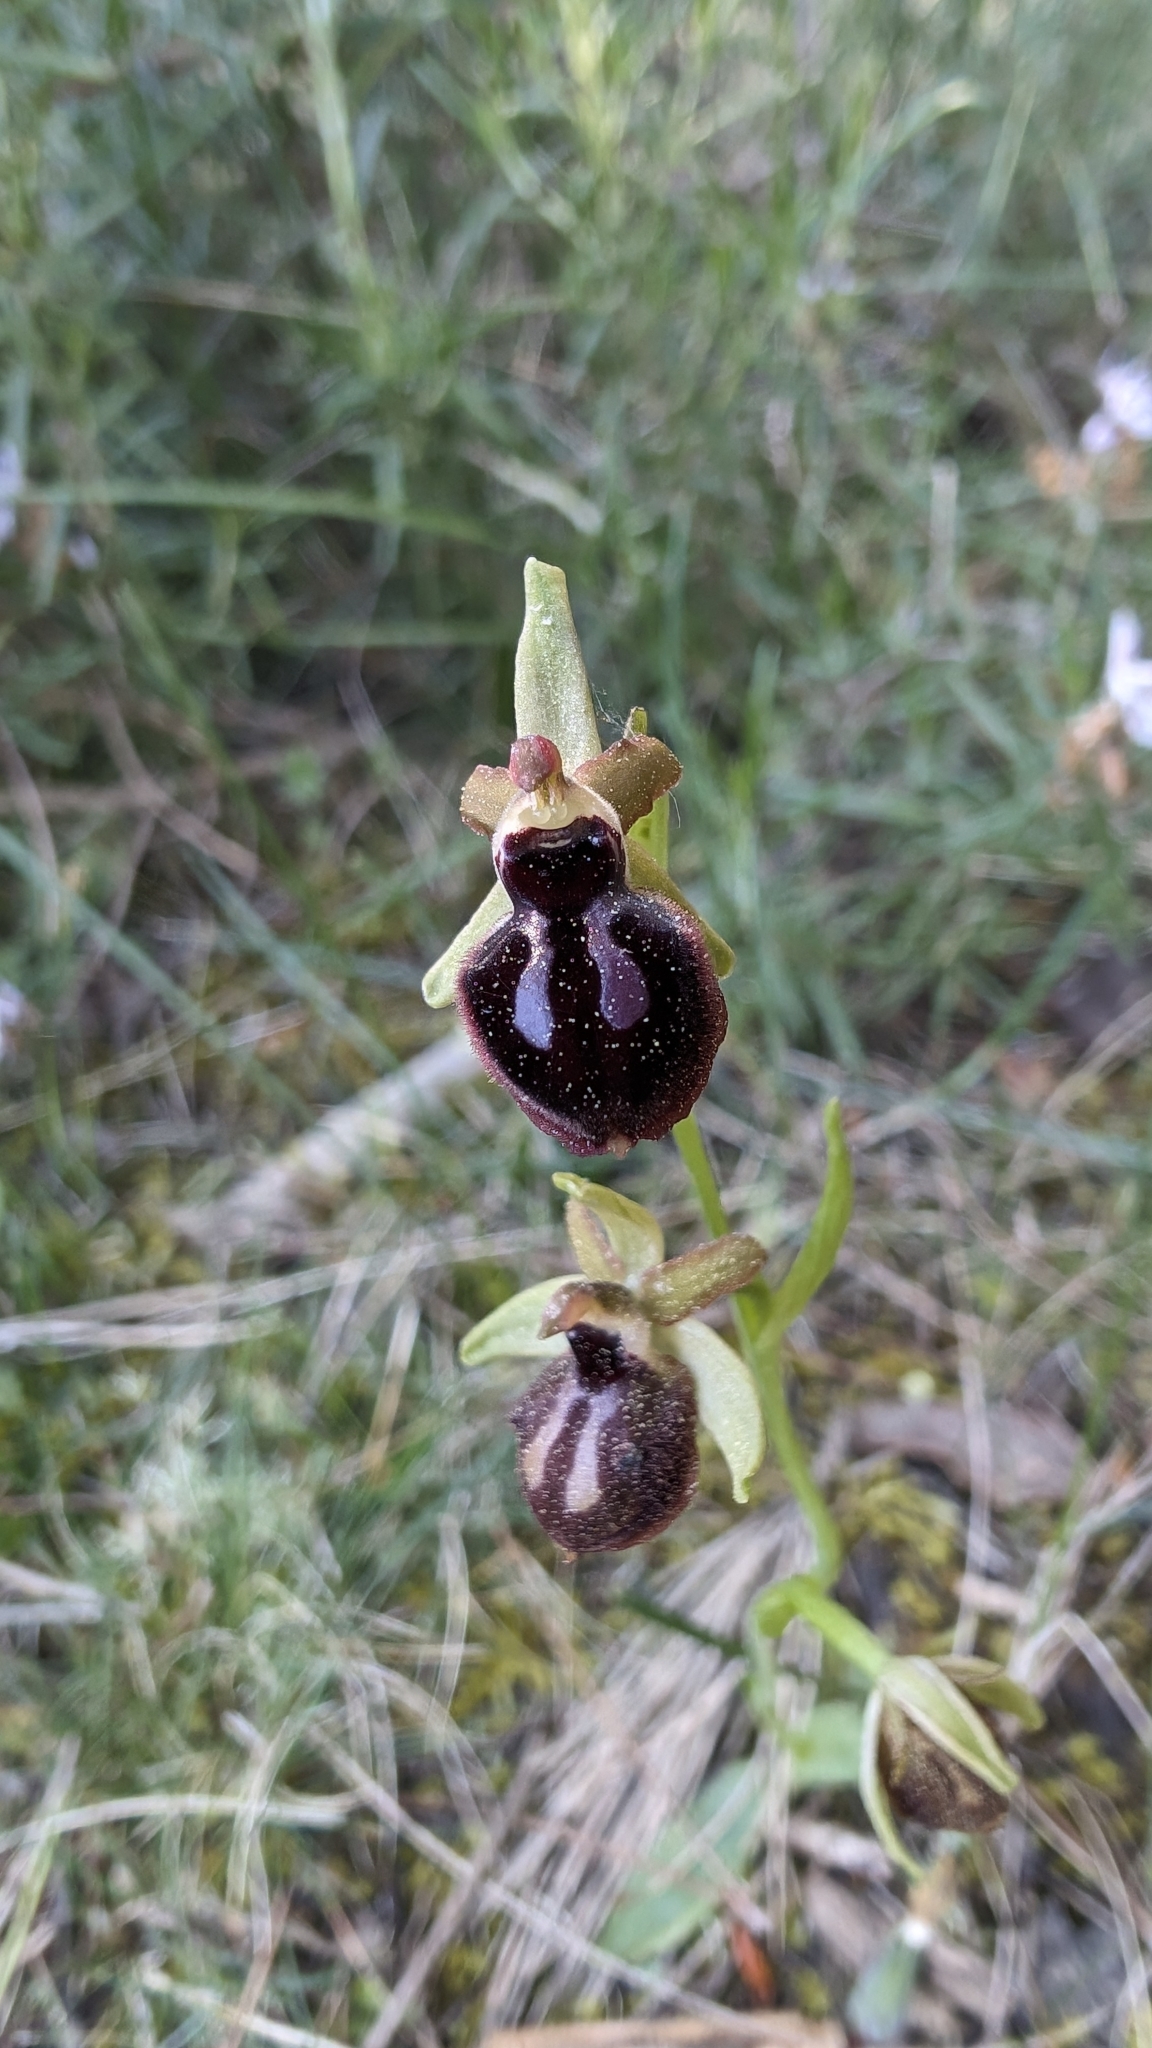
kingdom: Plantae
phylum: Tracheophyta
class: Liliopsida
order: Asparagales
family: Orchidaceae
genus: Ophrys
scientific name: Ophrys sphegodes
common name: Early spider-orchid
